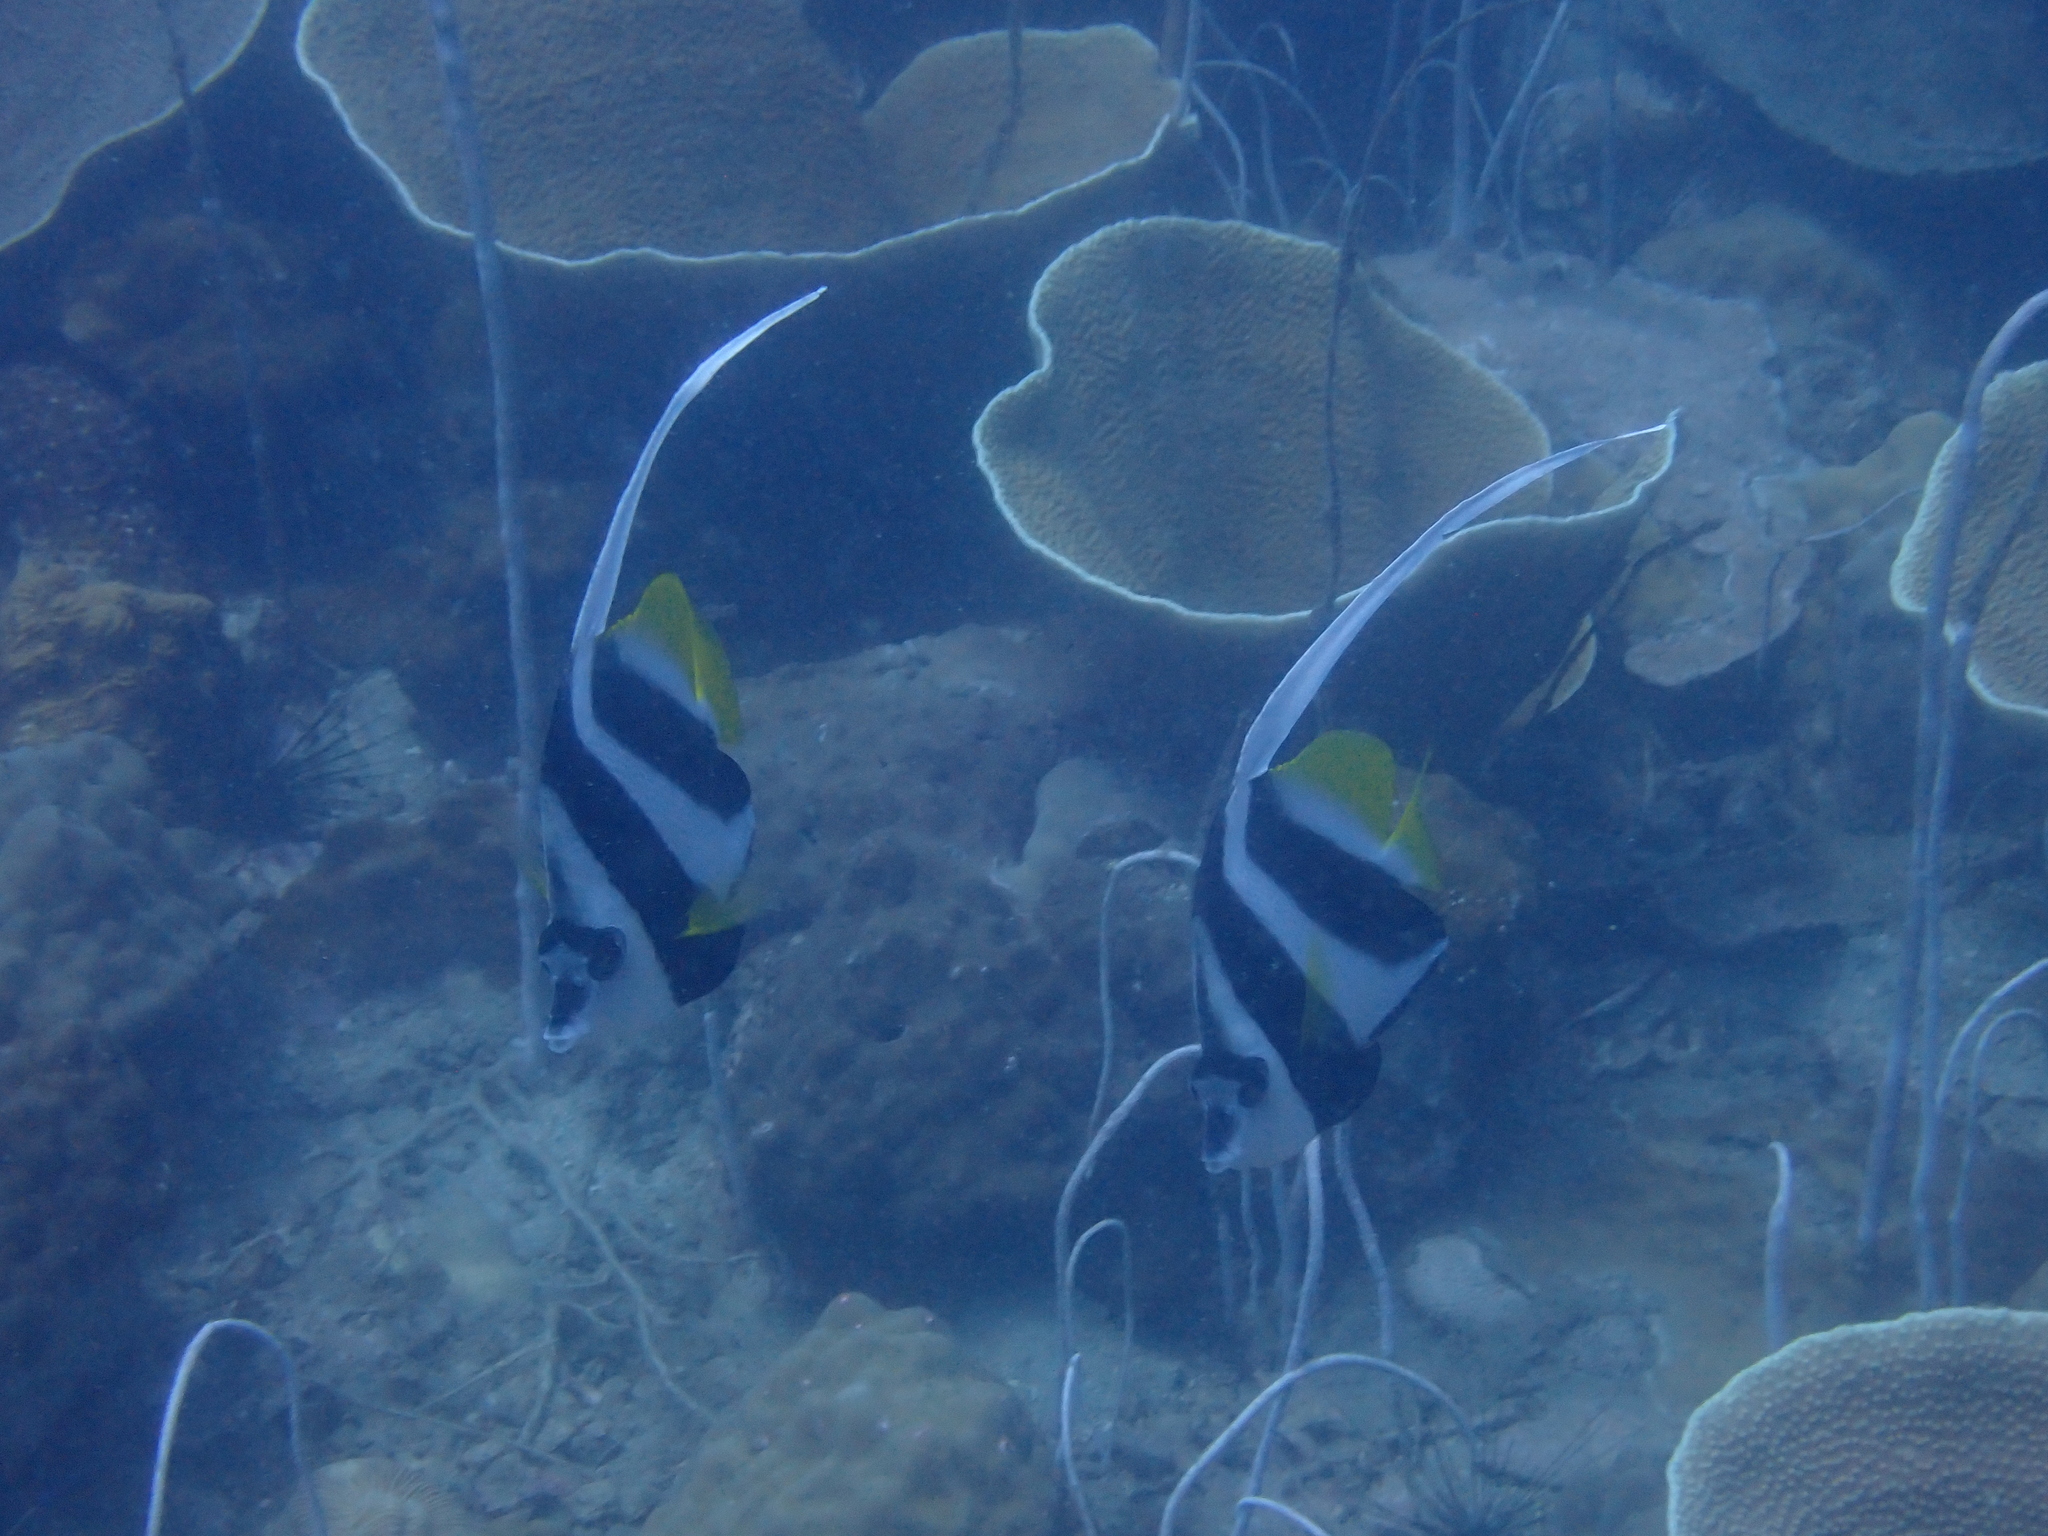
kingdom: Animalia
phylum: Chordata
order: Perciformes
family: Chaetodontidae
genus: Heniochus
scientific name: Heniochus acuminatus
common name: Pennant coralfish
